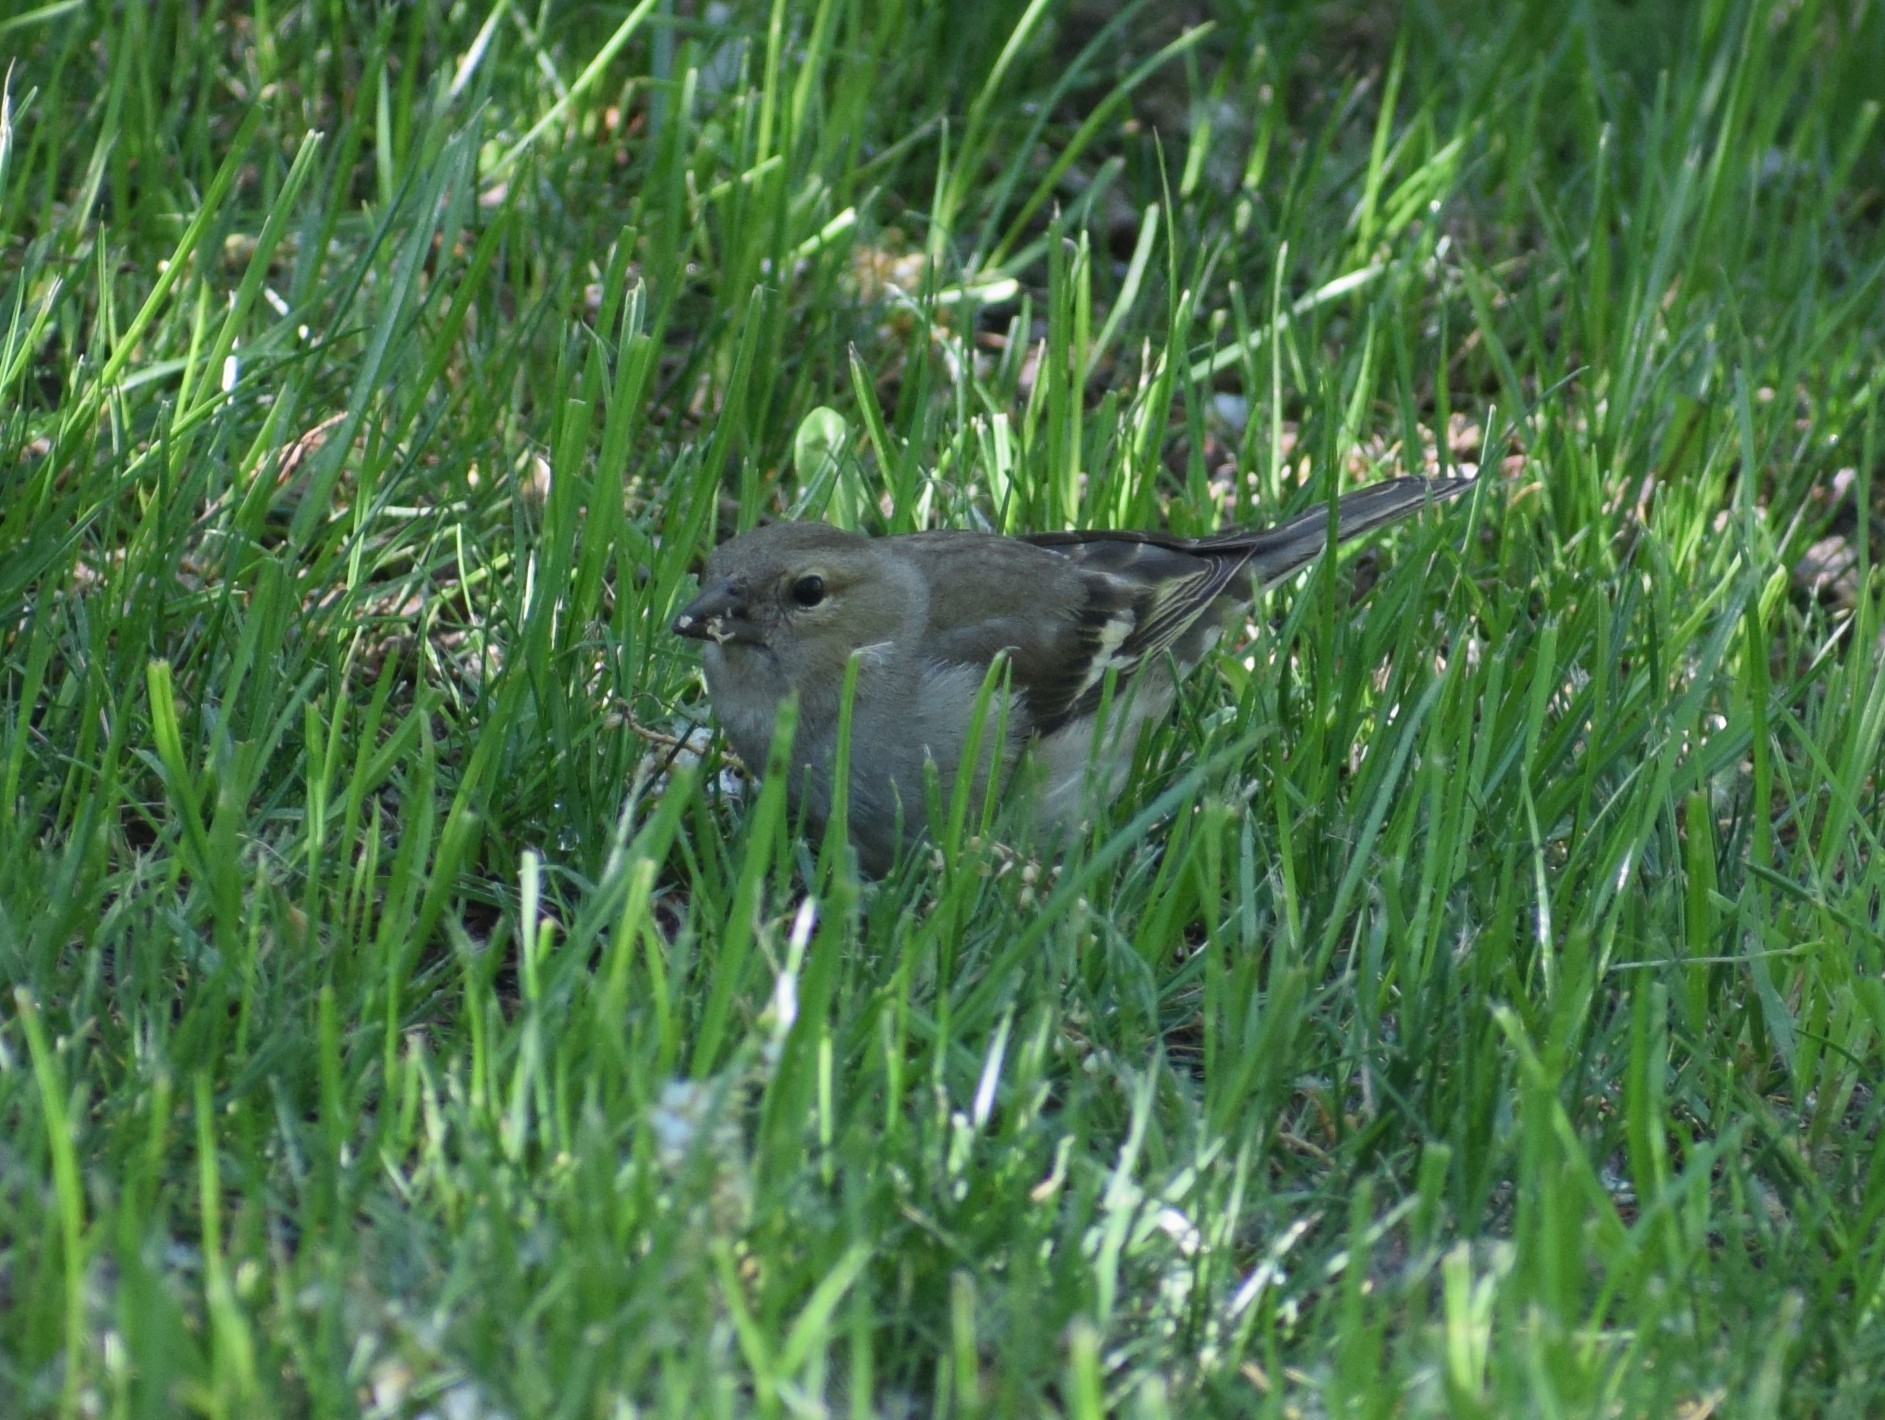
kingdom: Animalia
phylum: Chordata
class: Aves
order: Passeriformes
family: Fringillidae
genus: Fringilla
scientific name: Fringilla coelebs
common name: Common chaffinch
